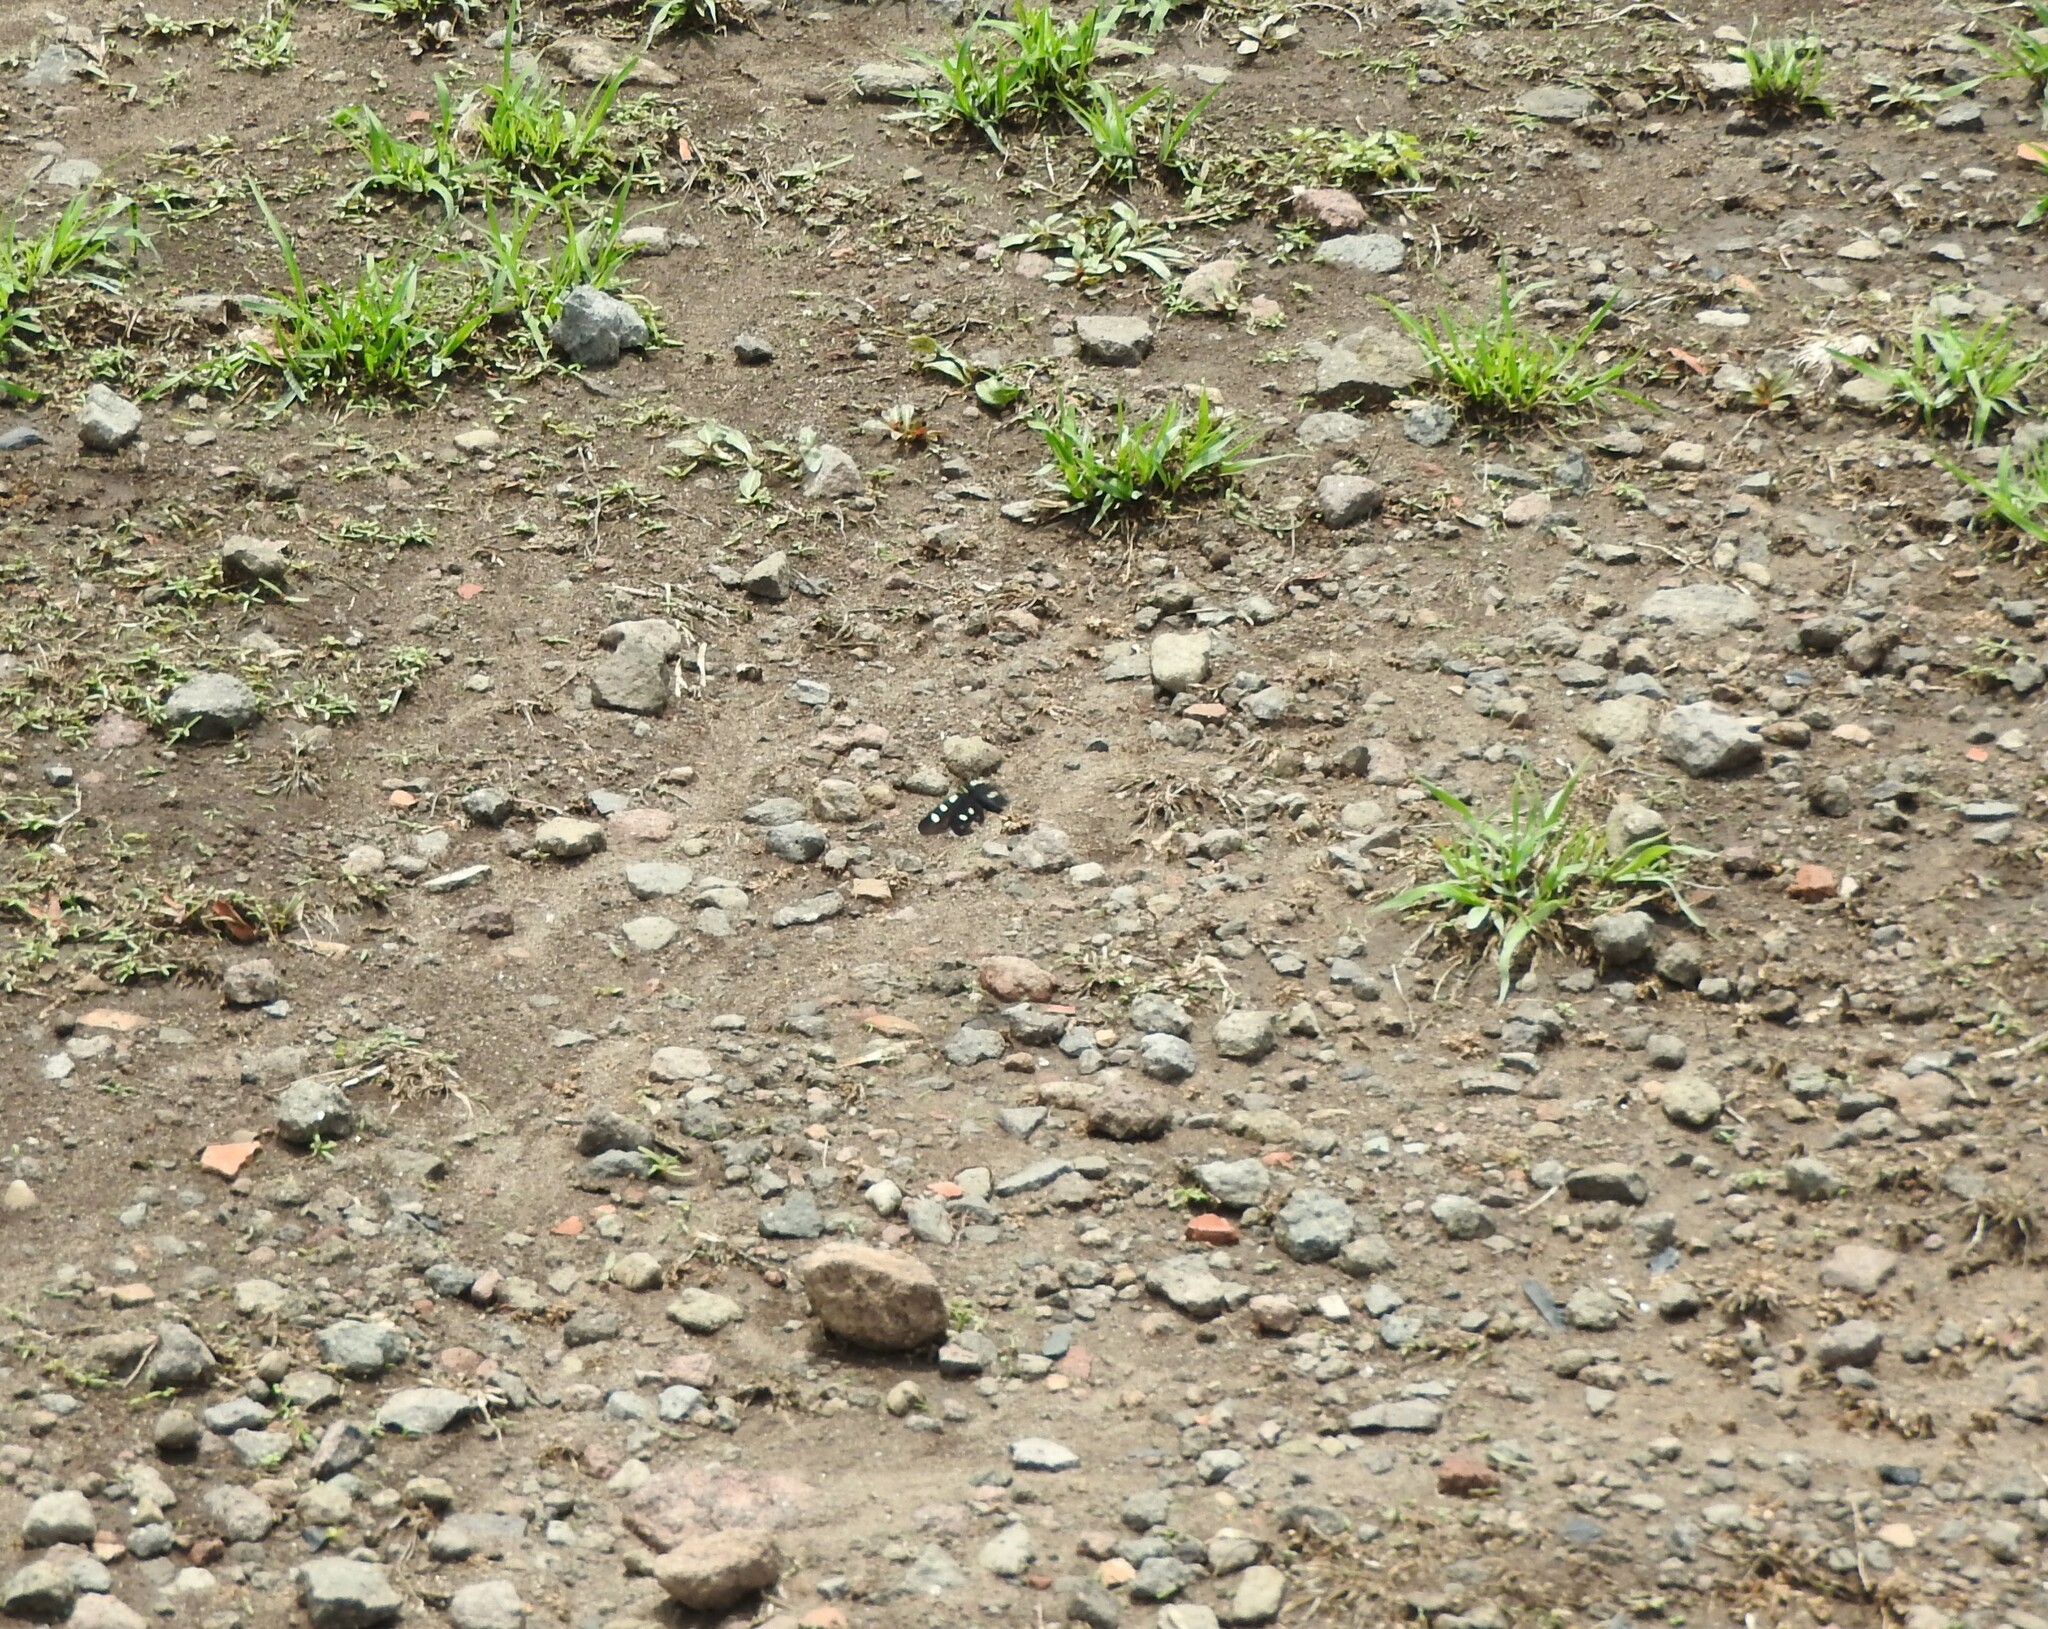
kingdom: Animalia
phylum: Arthropoda
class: Insecta
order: Lepidoptera
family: Noctuidae
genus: Alypiodes
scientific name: Alypiodes bimaculata
